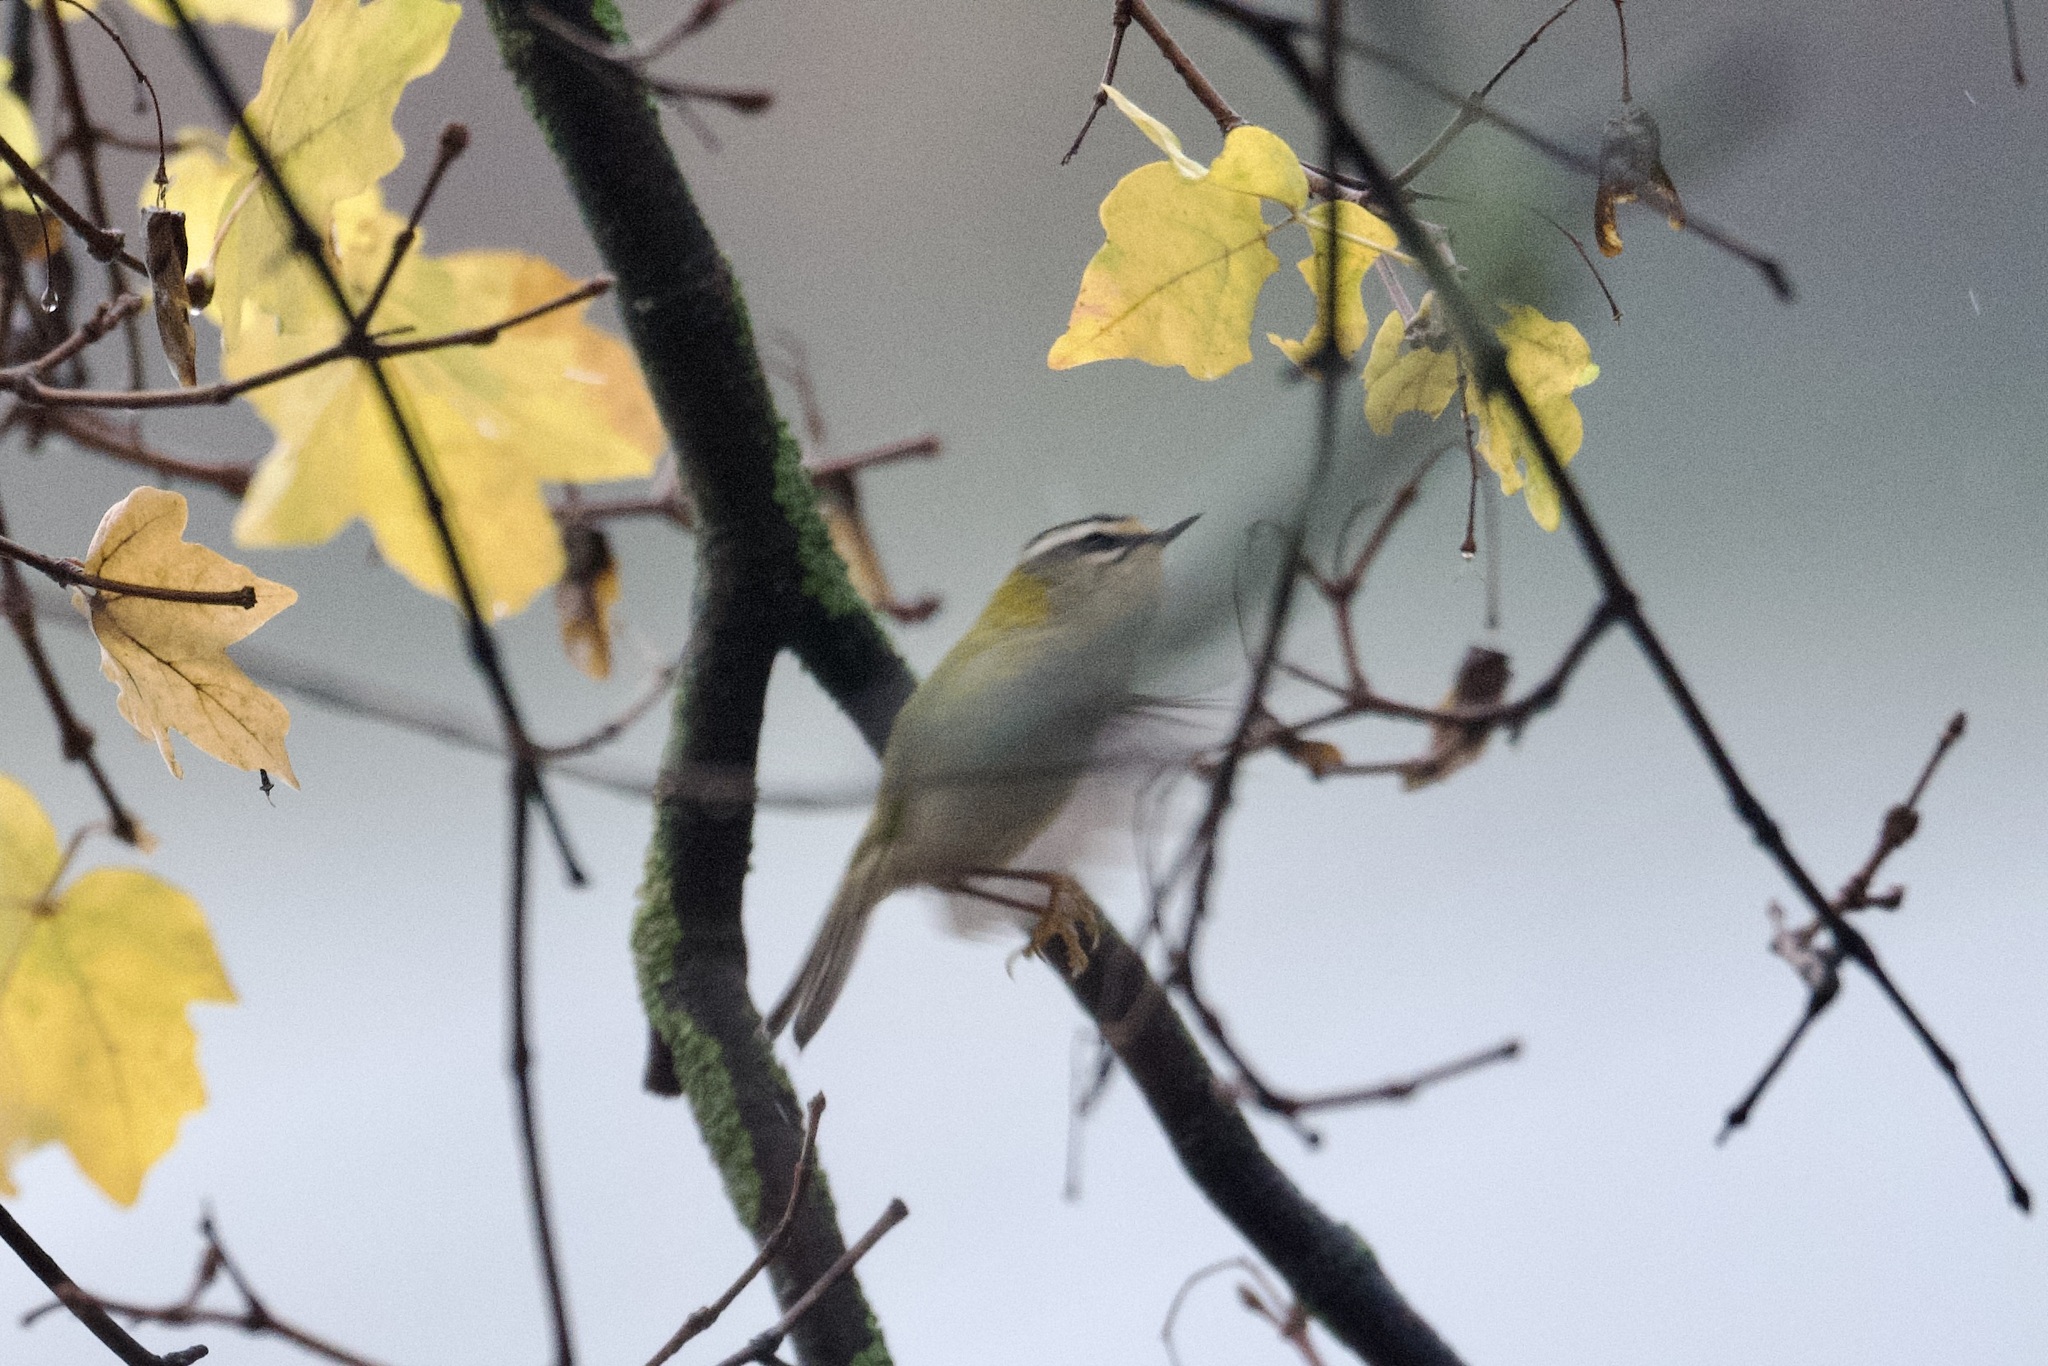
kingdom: Animalia
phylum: Chordata
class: Aves
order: Passeriformes
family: Regulidae
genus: Regulus
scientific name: Regulus ignicapilla
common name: Firecrest
